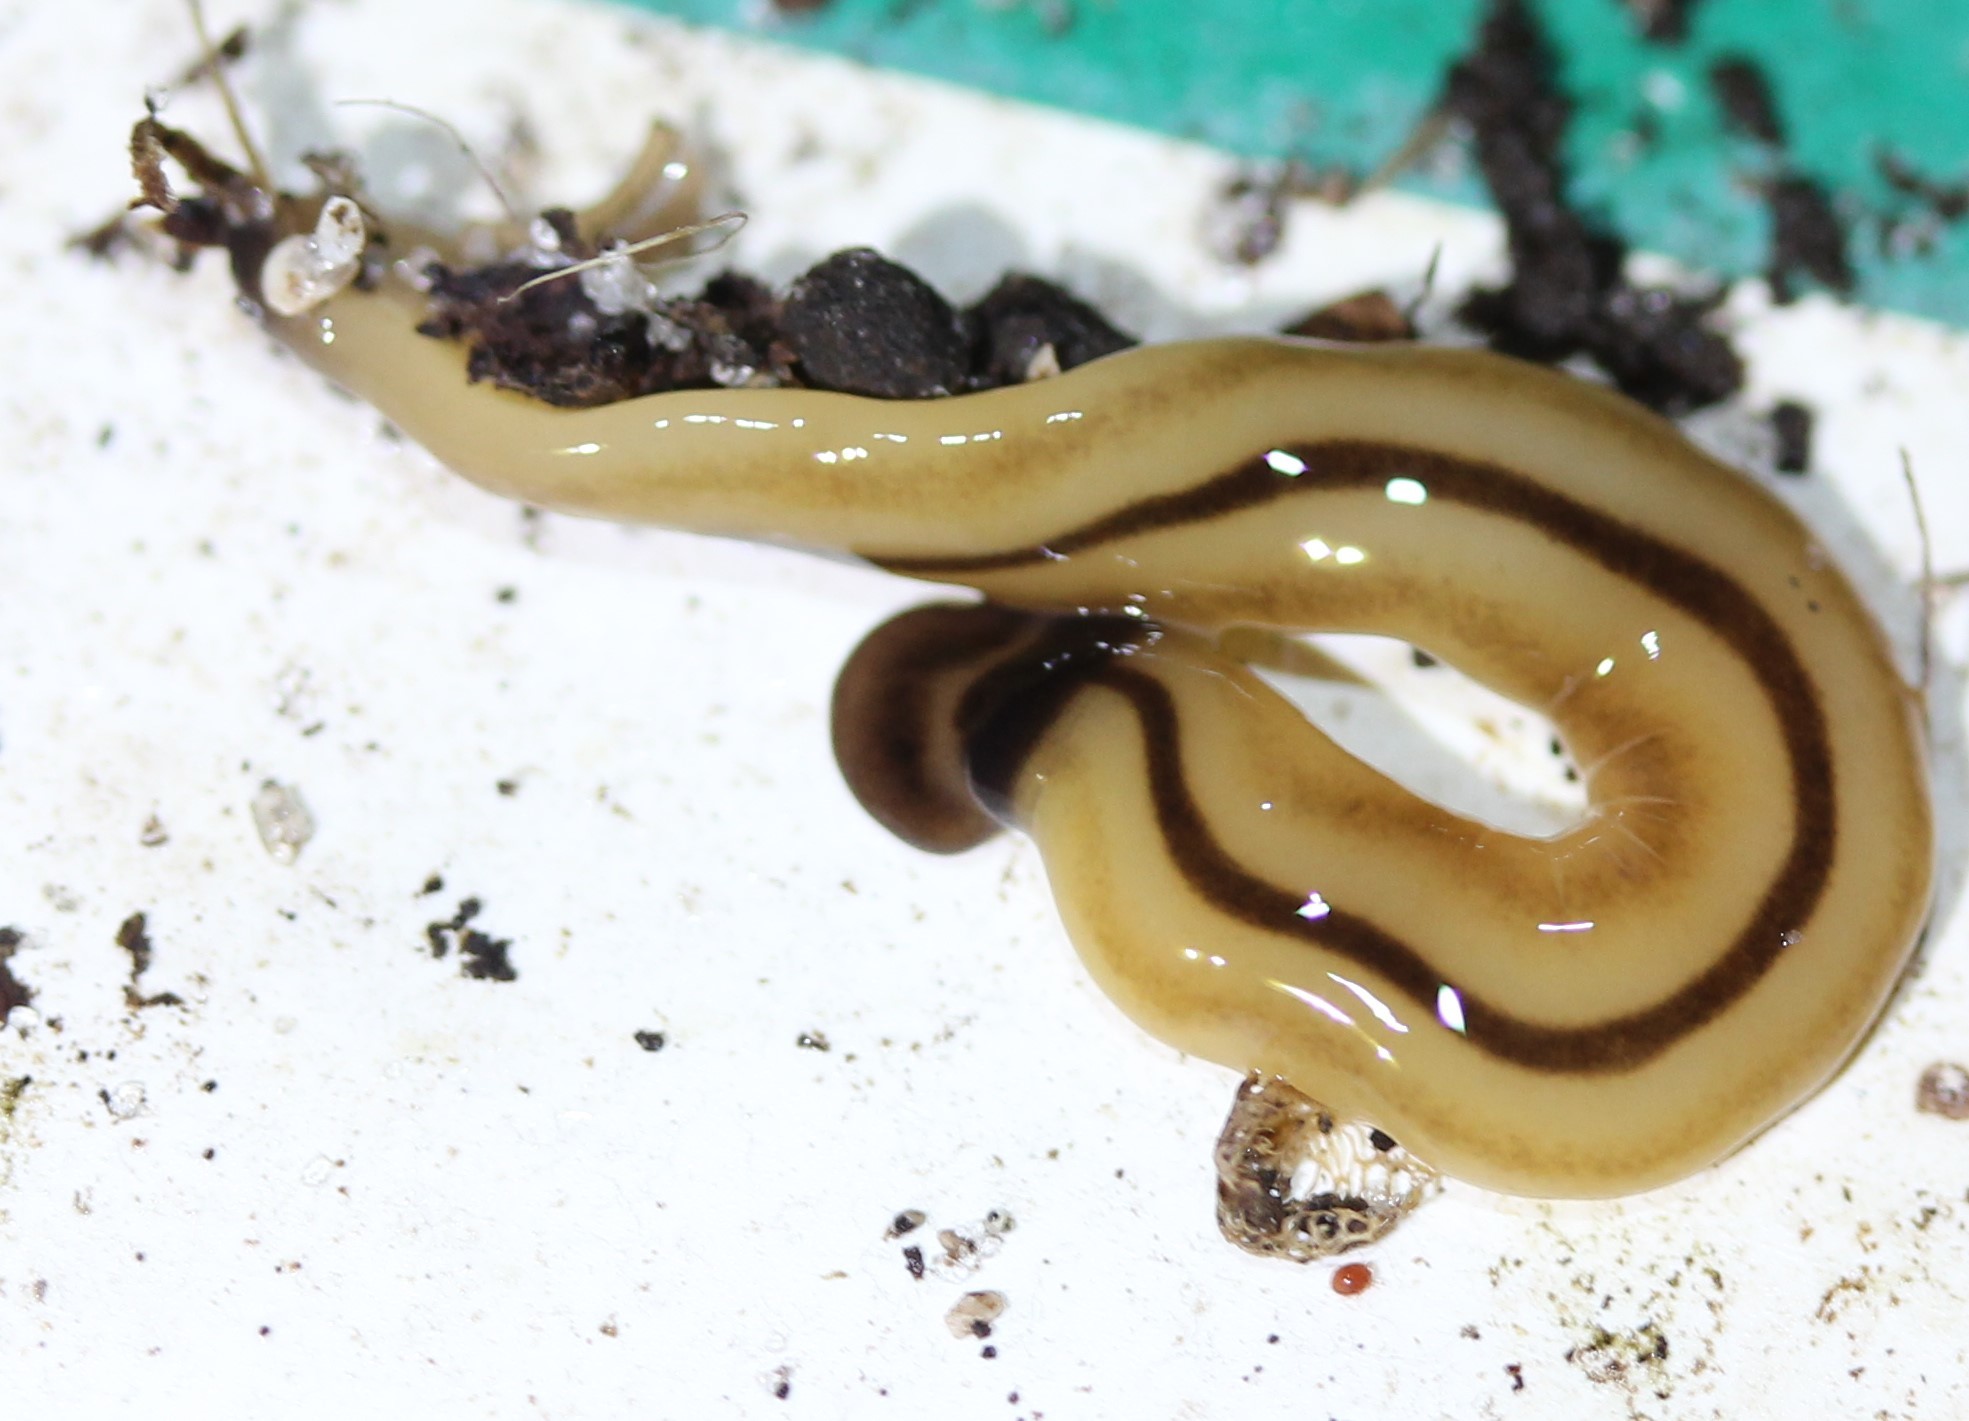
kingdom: Animalia
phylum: Platyhelminthes
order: Tricladida
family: Geoplanidae
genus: Bipalium
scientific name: Bipalium vagum
